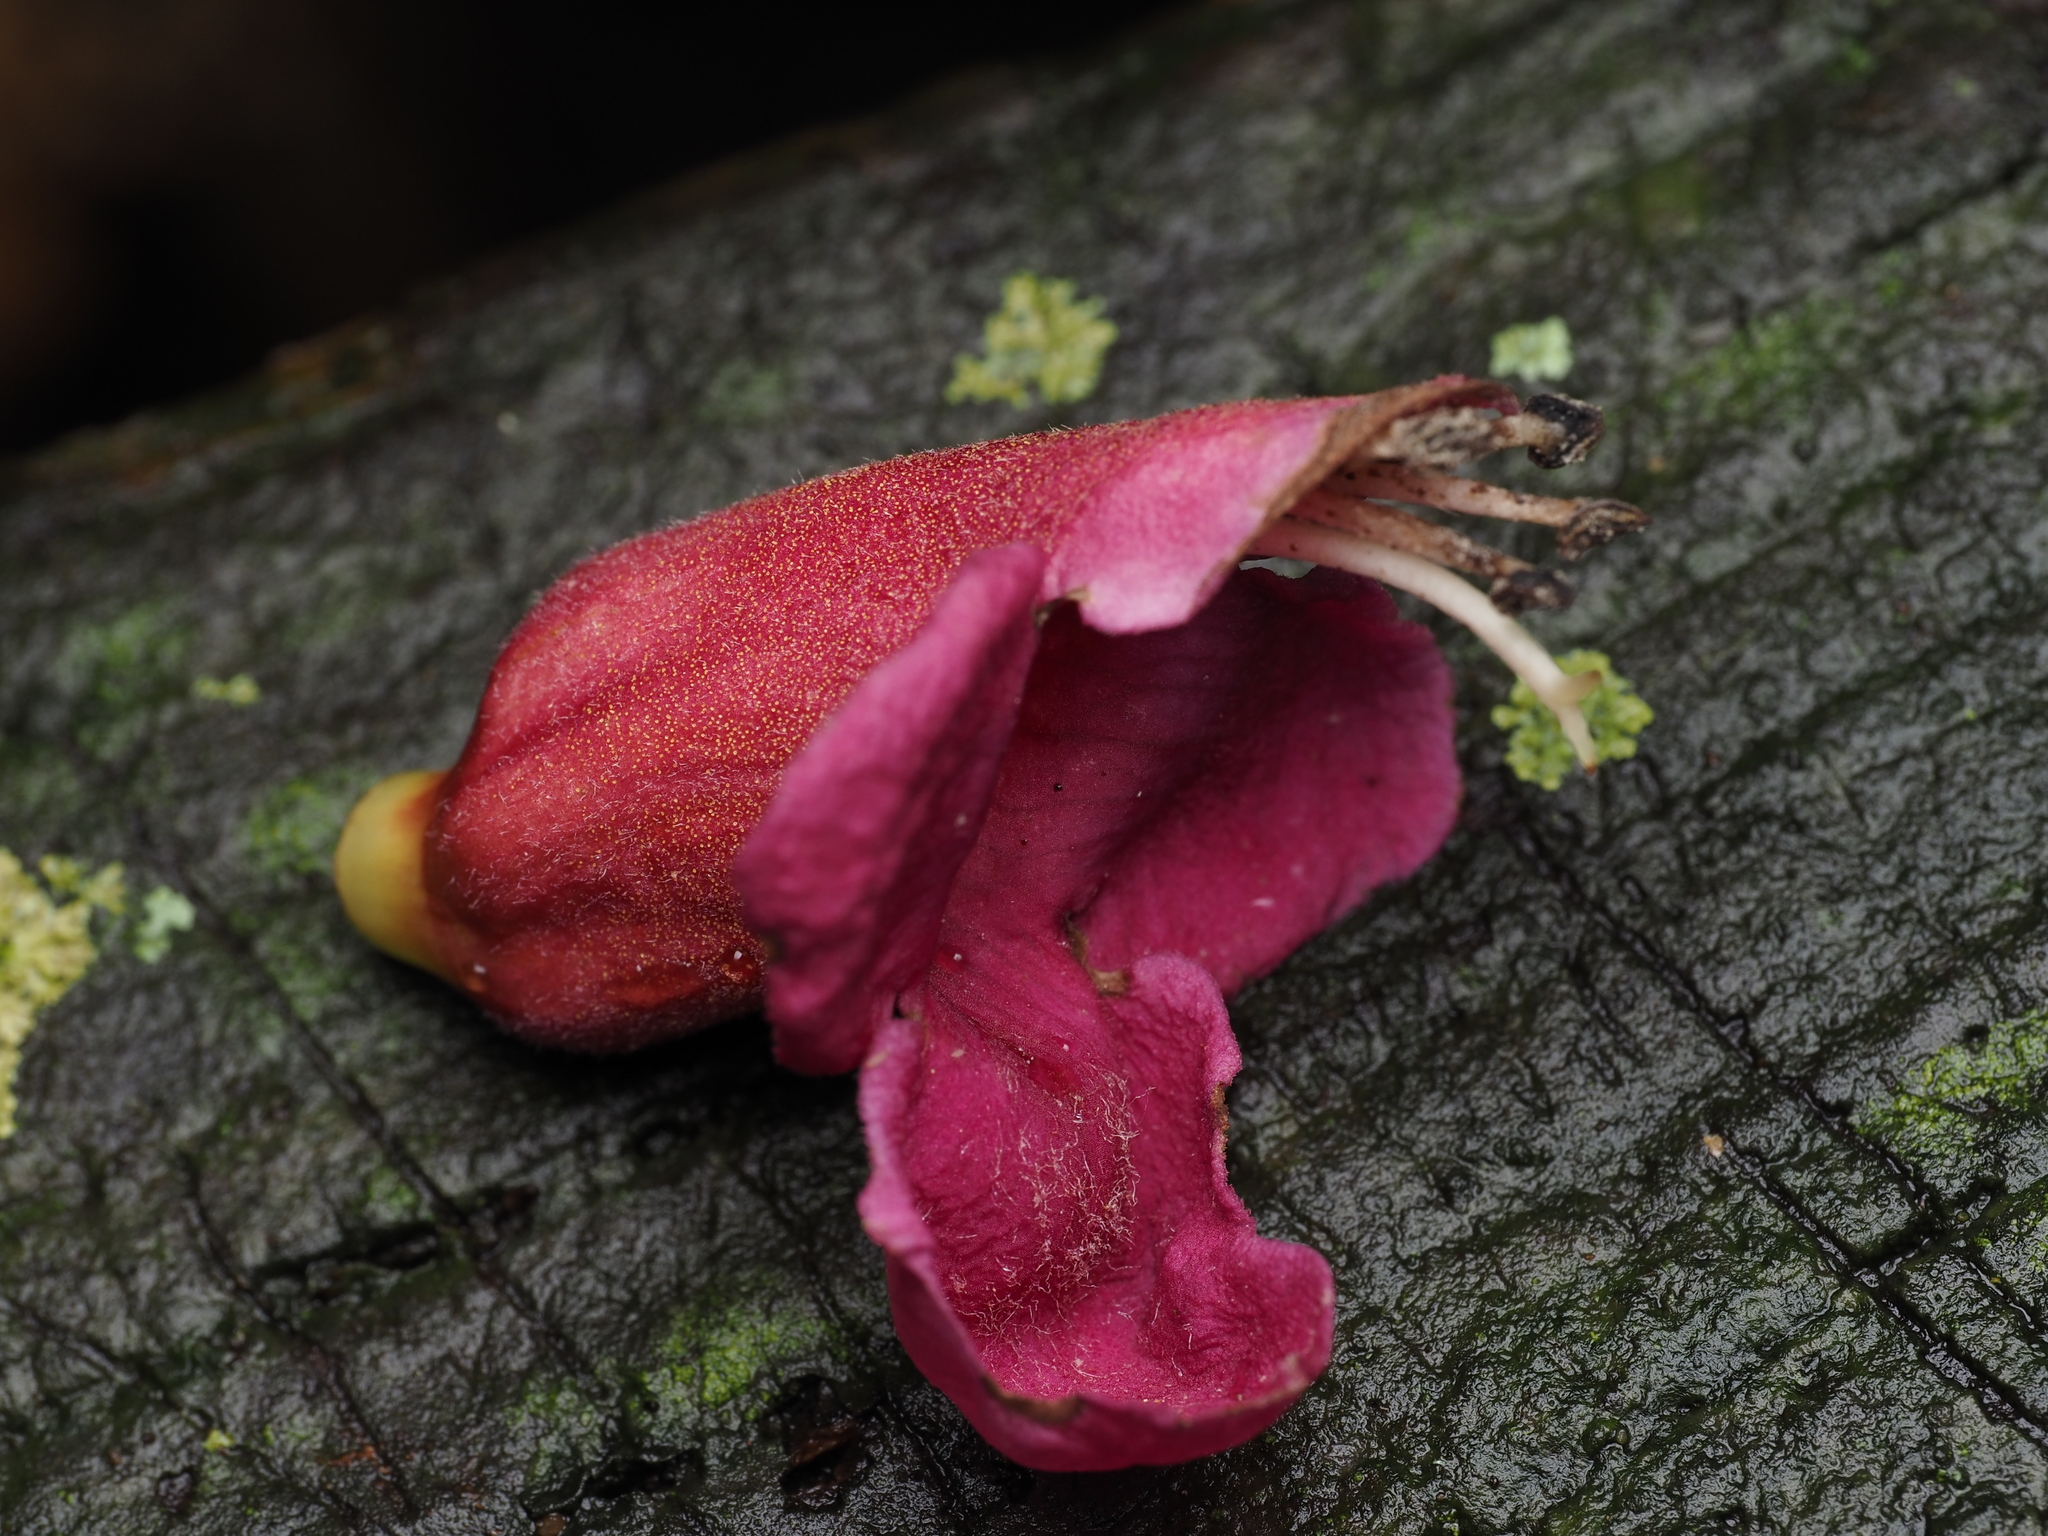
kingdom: Plantae
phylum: Tracheophyta
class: Magnoliopsida
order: Lamiales
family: Lamiaceae
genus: Vitex
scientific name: Vitex lucens
